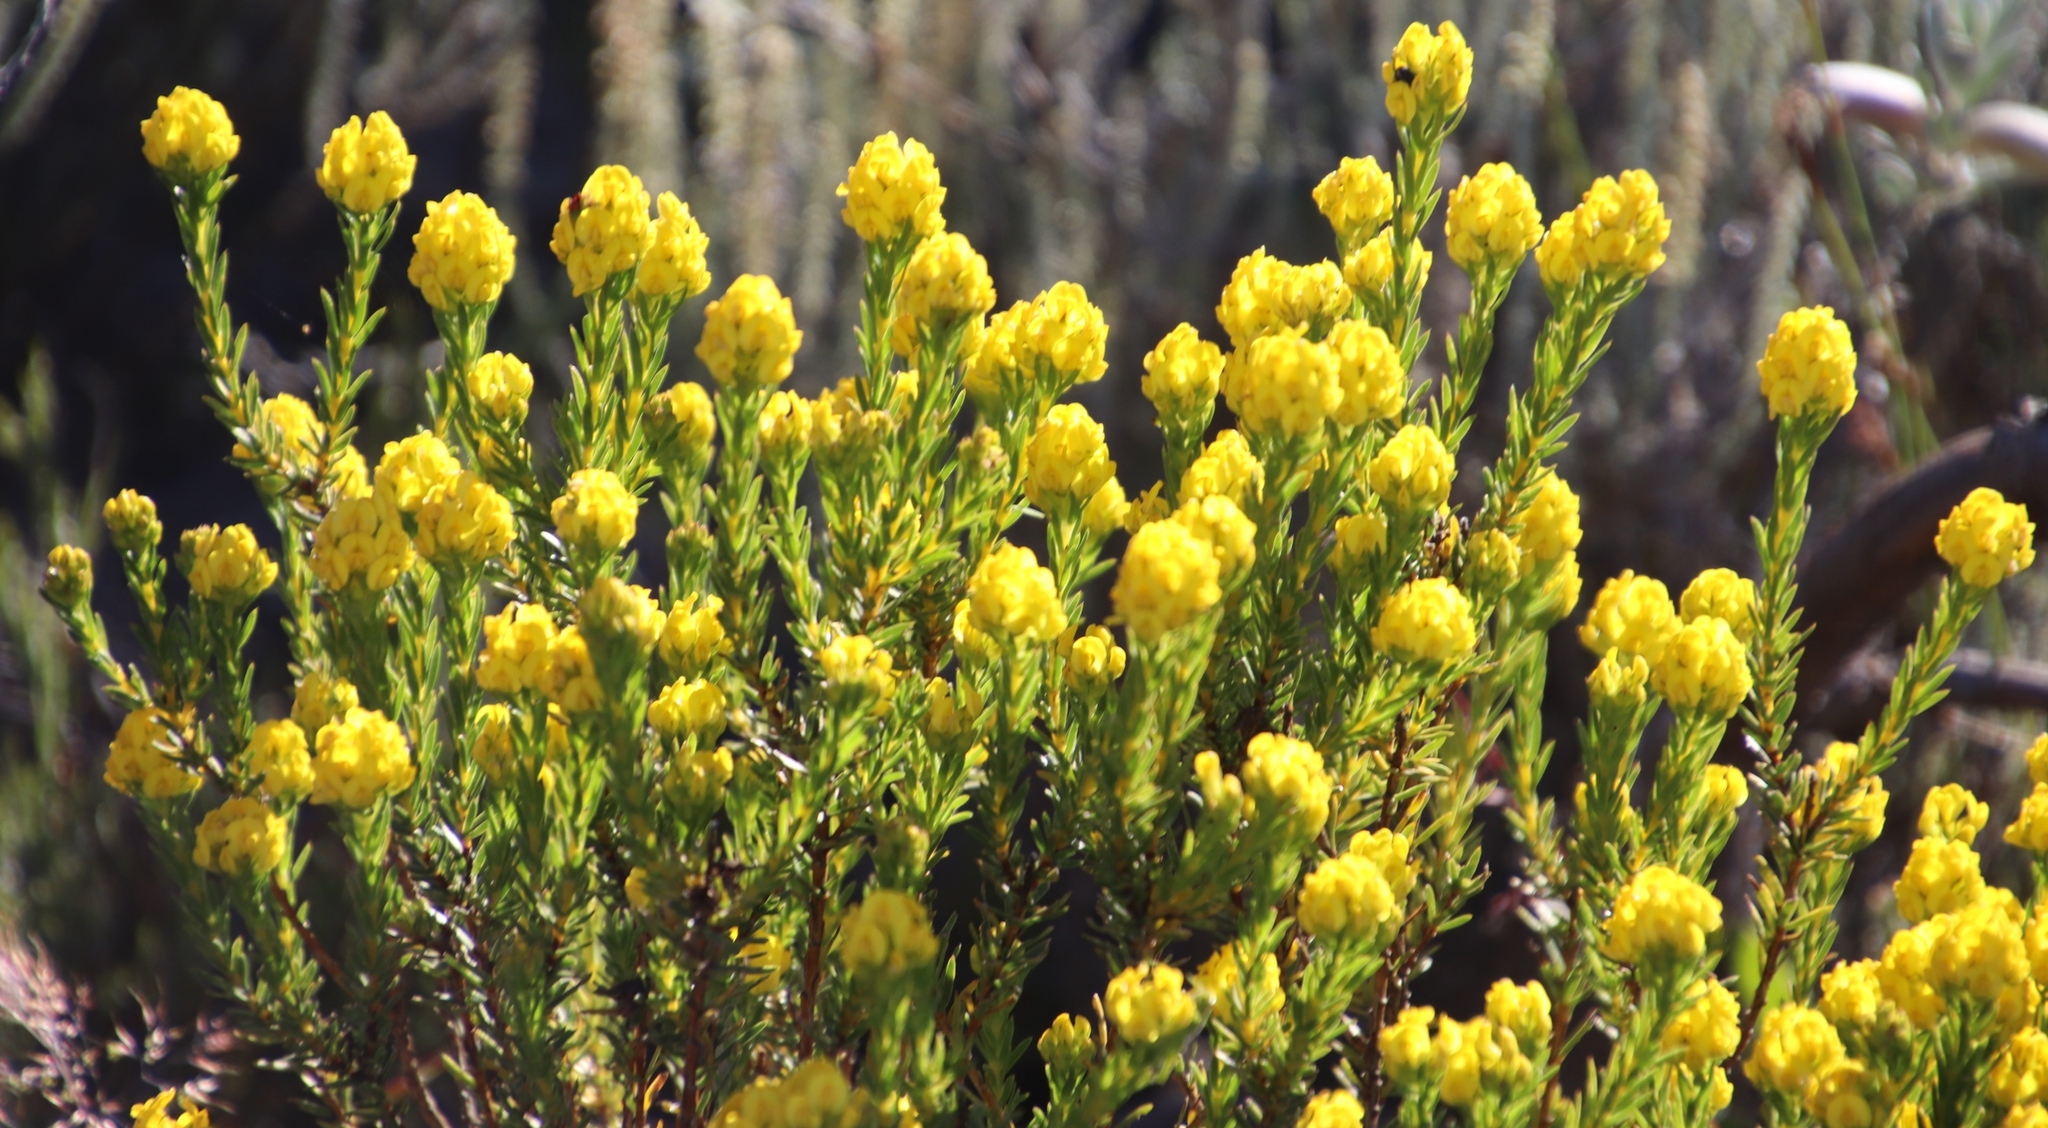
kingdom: Plantae
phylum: Tracheophyta
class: Magnoliopsida
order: Fabales
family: Fabaceae
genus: Aspalathus
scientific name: Aspalathus callosa
